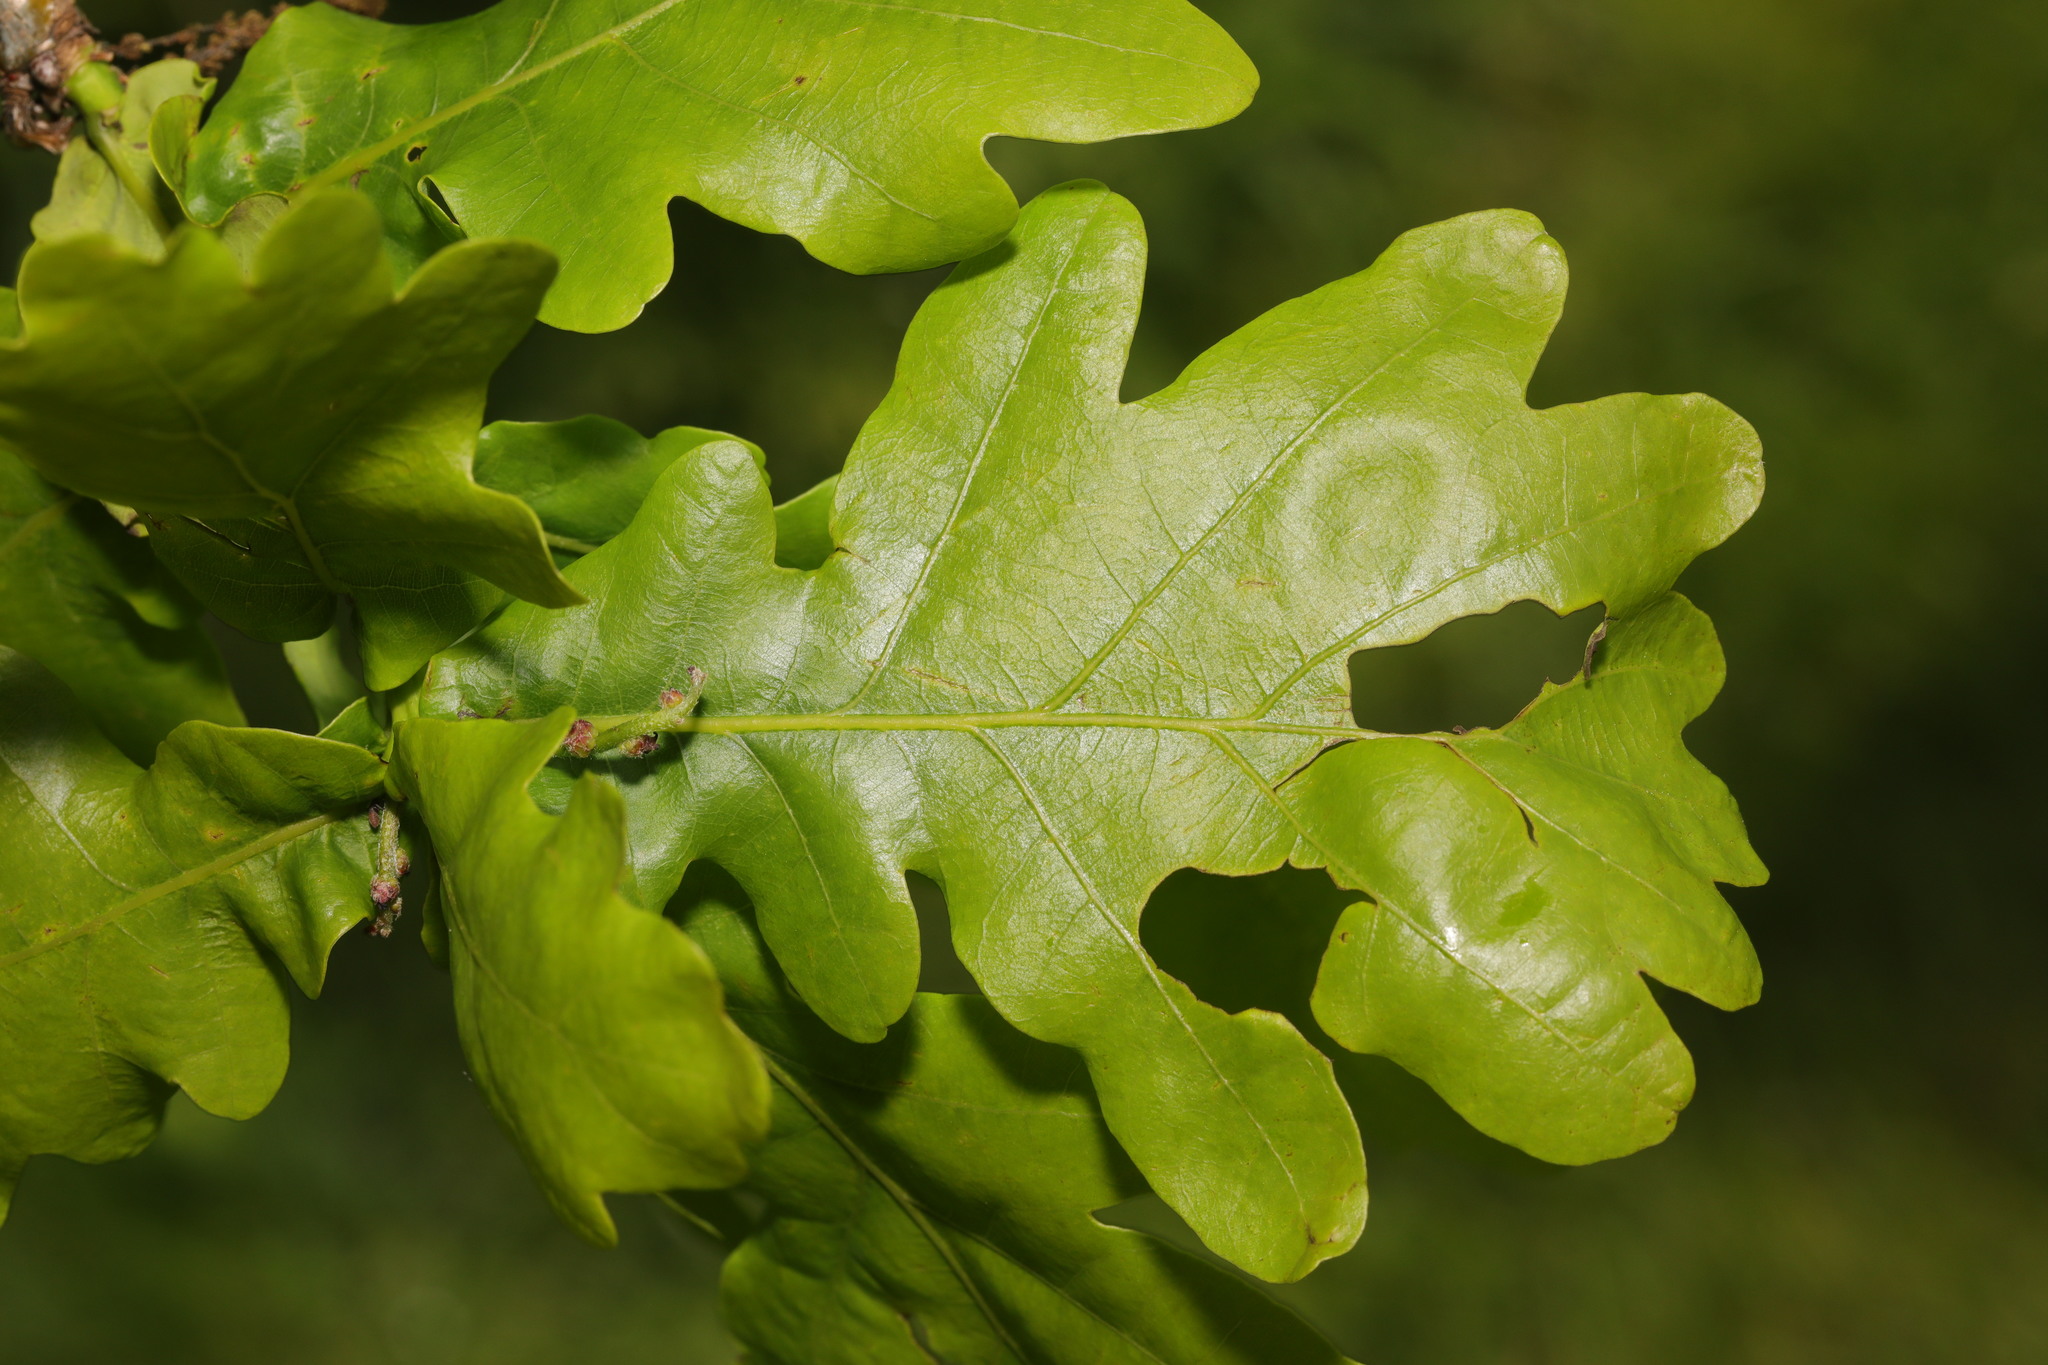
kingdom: Plantae
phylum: Tracheophyta
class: Magnoliopsida
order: Fagales
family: Fagaceae
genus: Quercus
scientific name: Quercus robur
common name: Pedunculate oak
